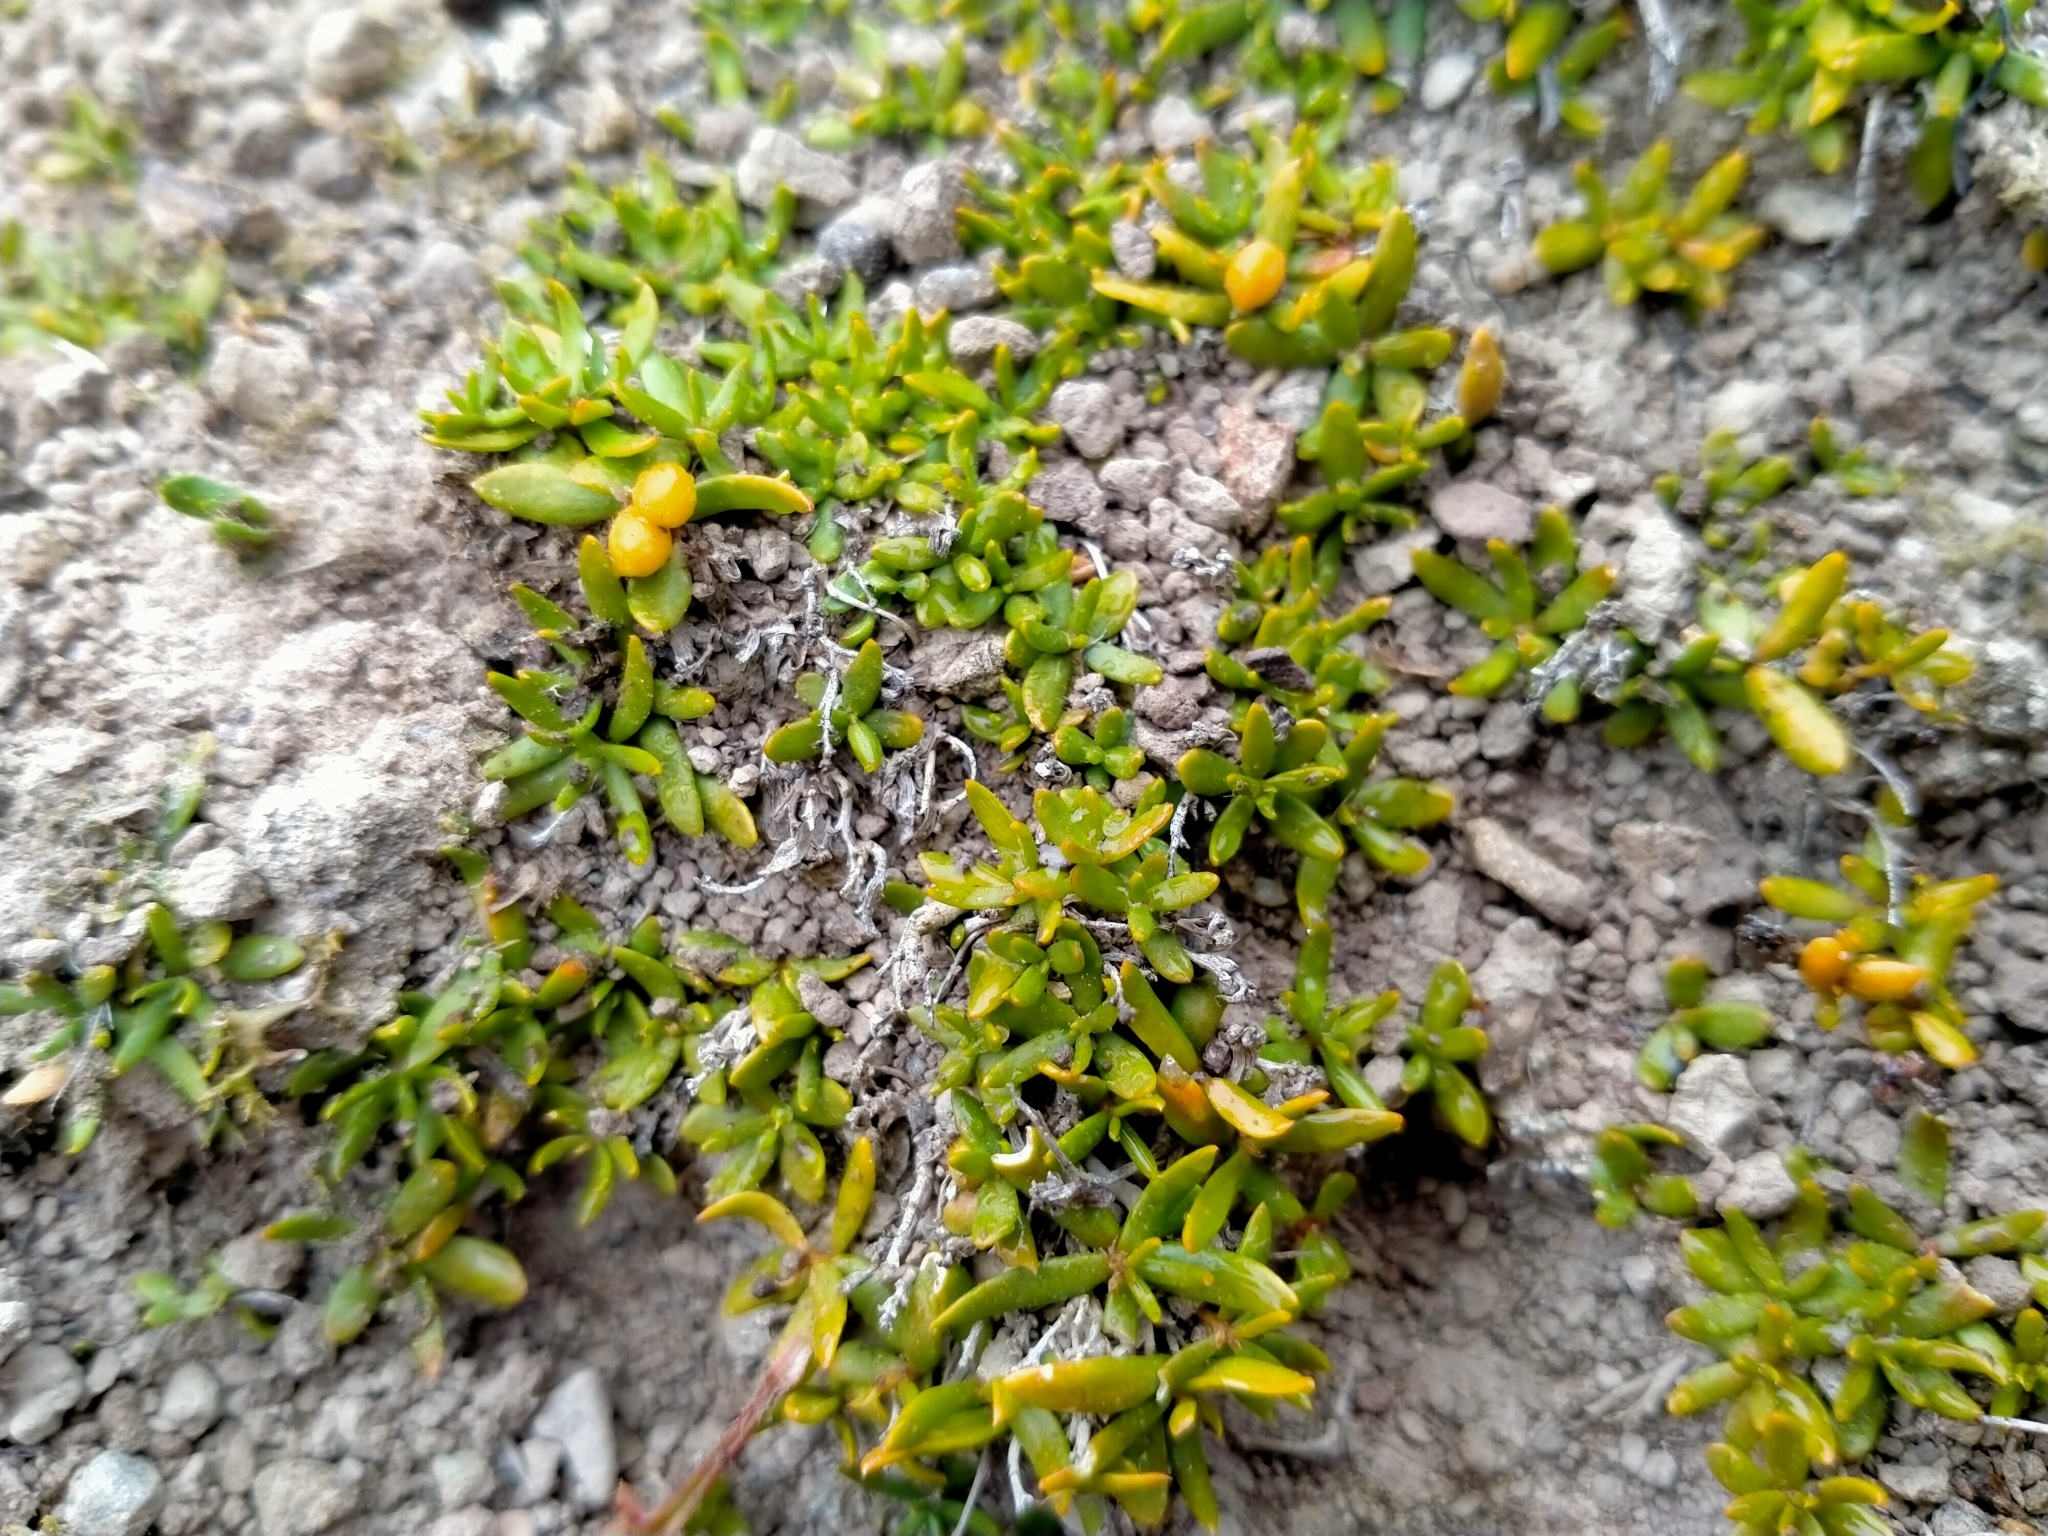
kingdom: Plantae
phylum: Tracheophyta
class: Magnoliopsida
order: Celastrales
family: Celastraceae
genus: Stackhousia
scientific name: Stackhousia minima
